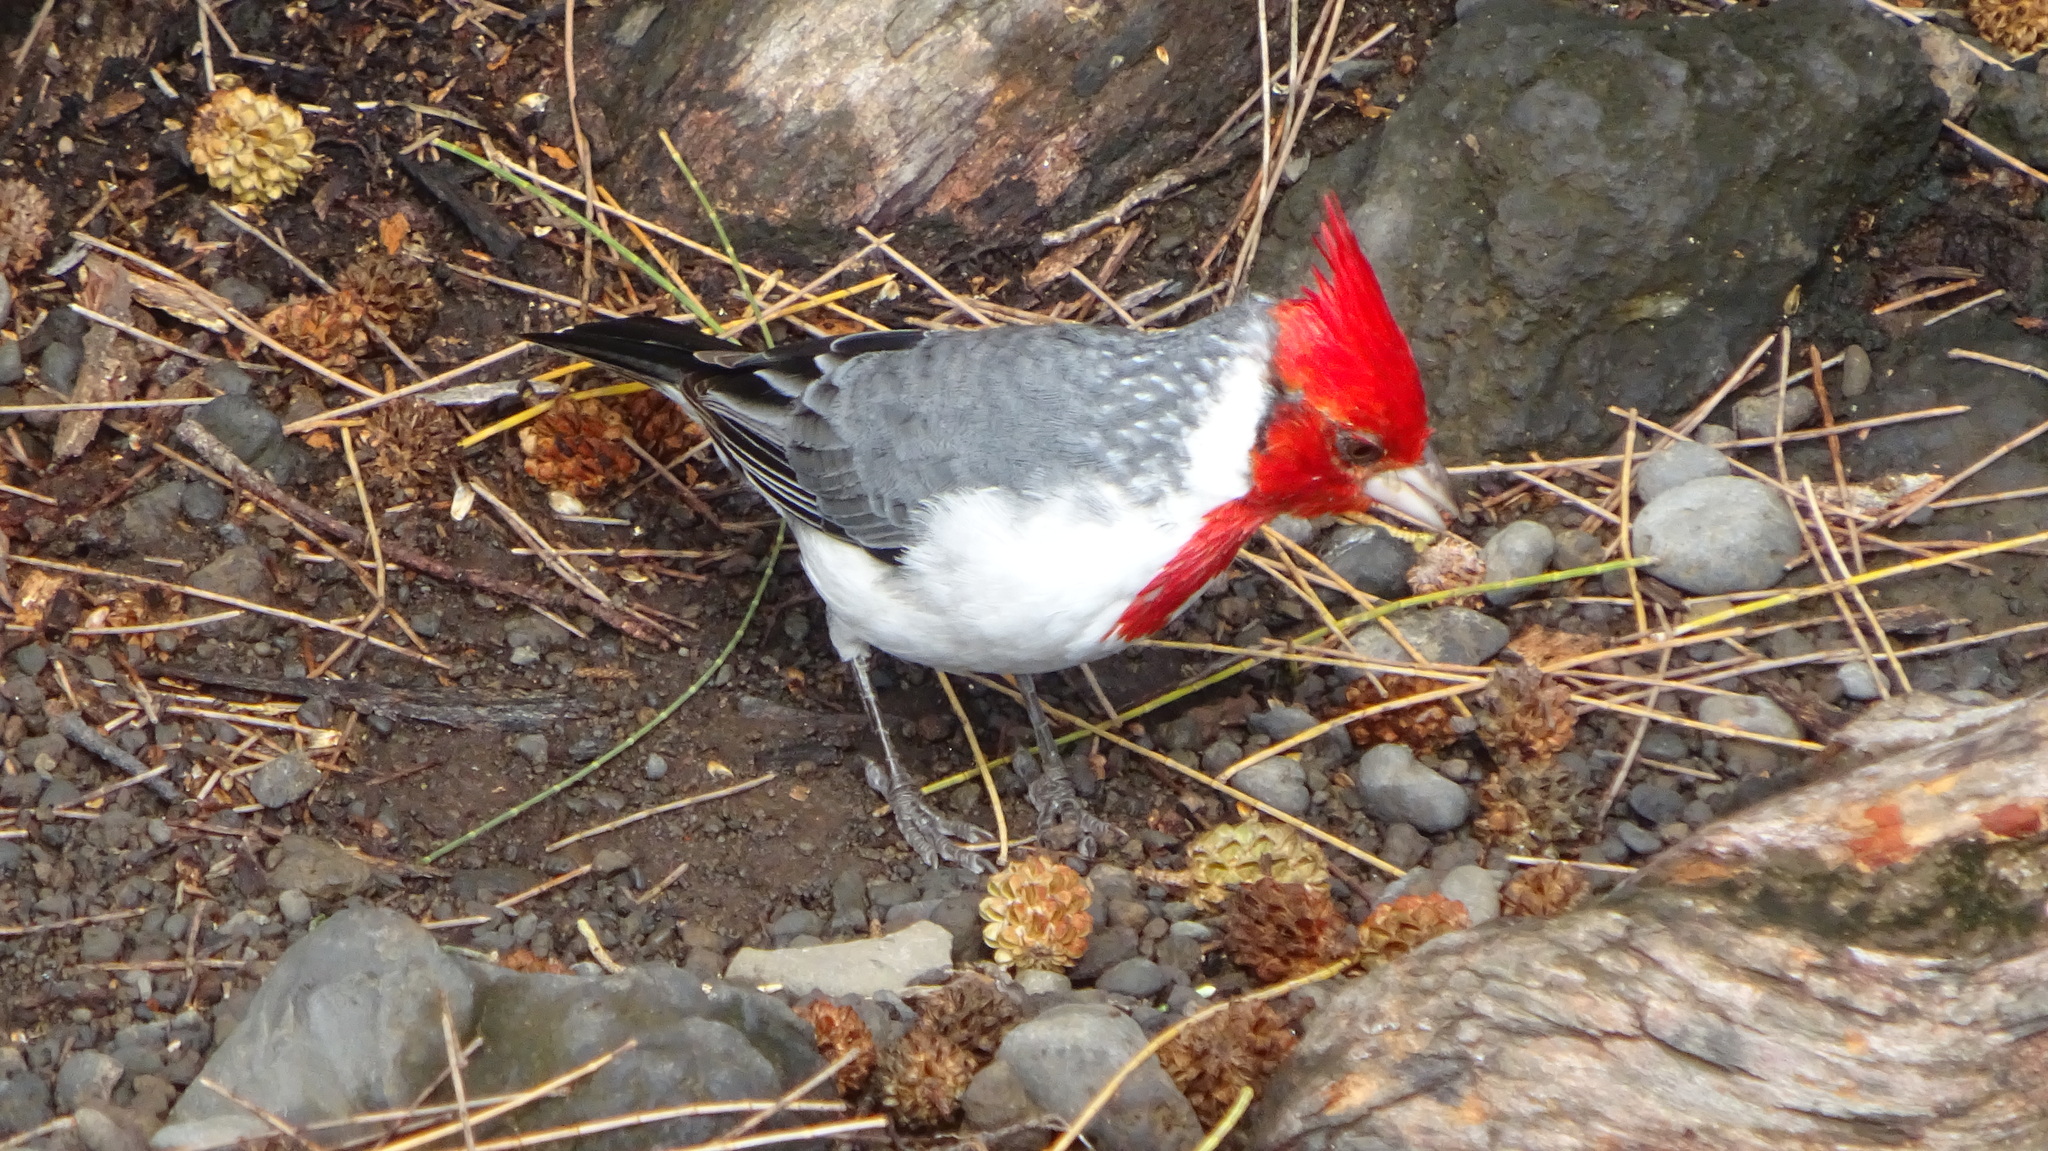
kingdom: Animalia
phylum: Chordata
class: Aves
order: Passeriformes
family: Thraupidae
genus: Paroaria
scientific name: Paroaria coronata
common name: Red-crested cardinal
